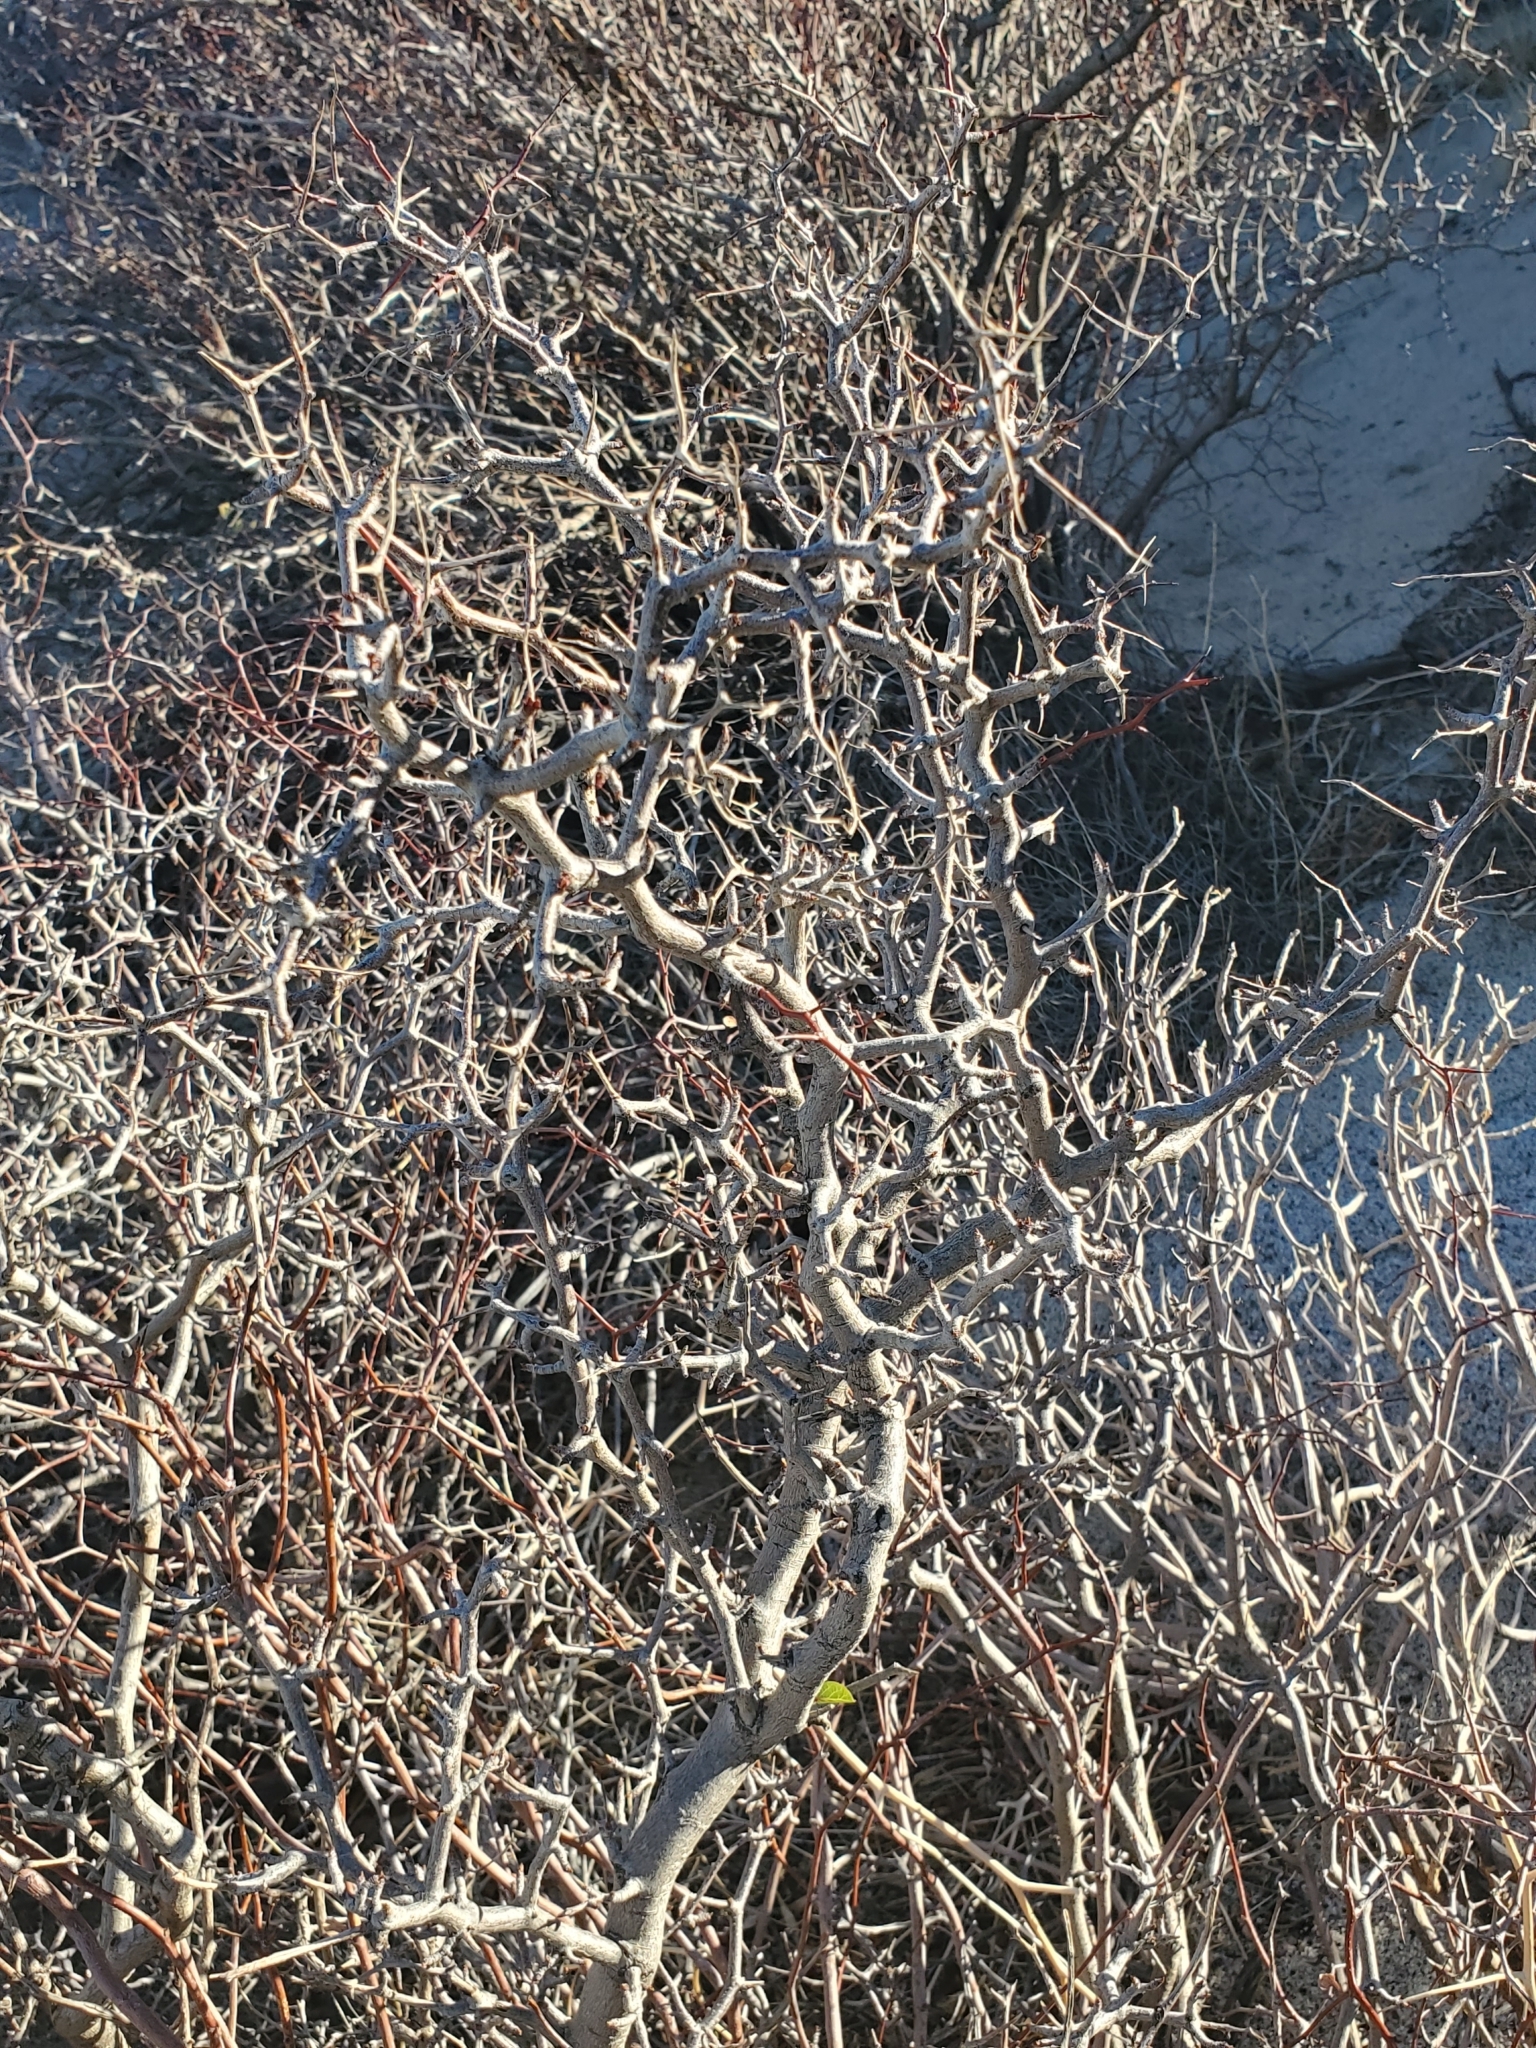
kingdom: Plantae
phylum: Tracheophyta
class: Magnoliopsida
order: Rosales
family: Rosaceae
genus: Prunus
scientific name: Prunus fremontii
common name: Desert apricot
